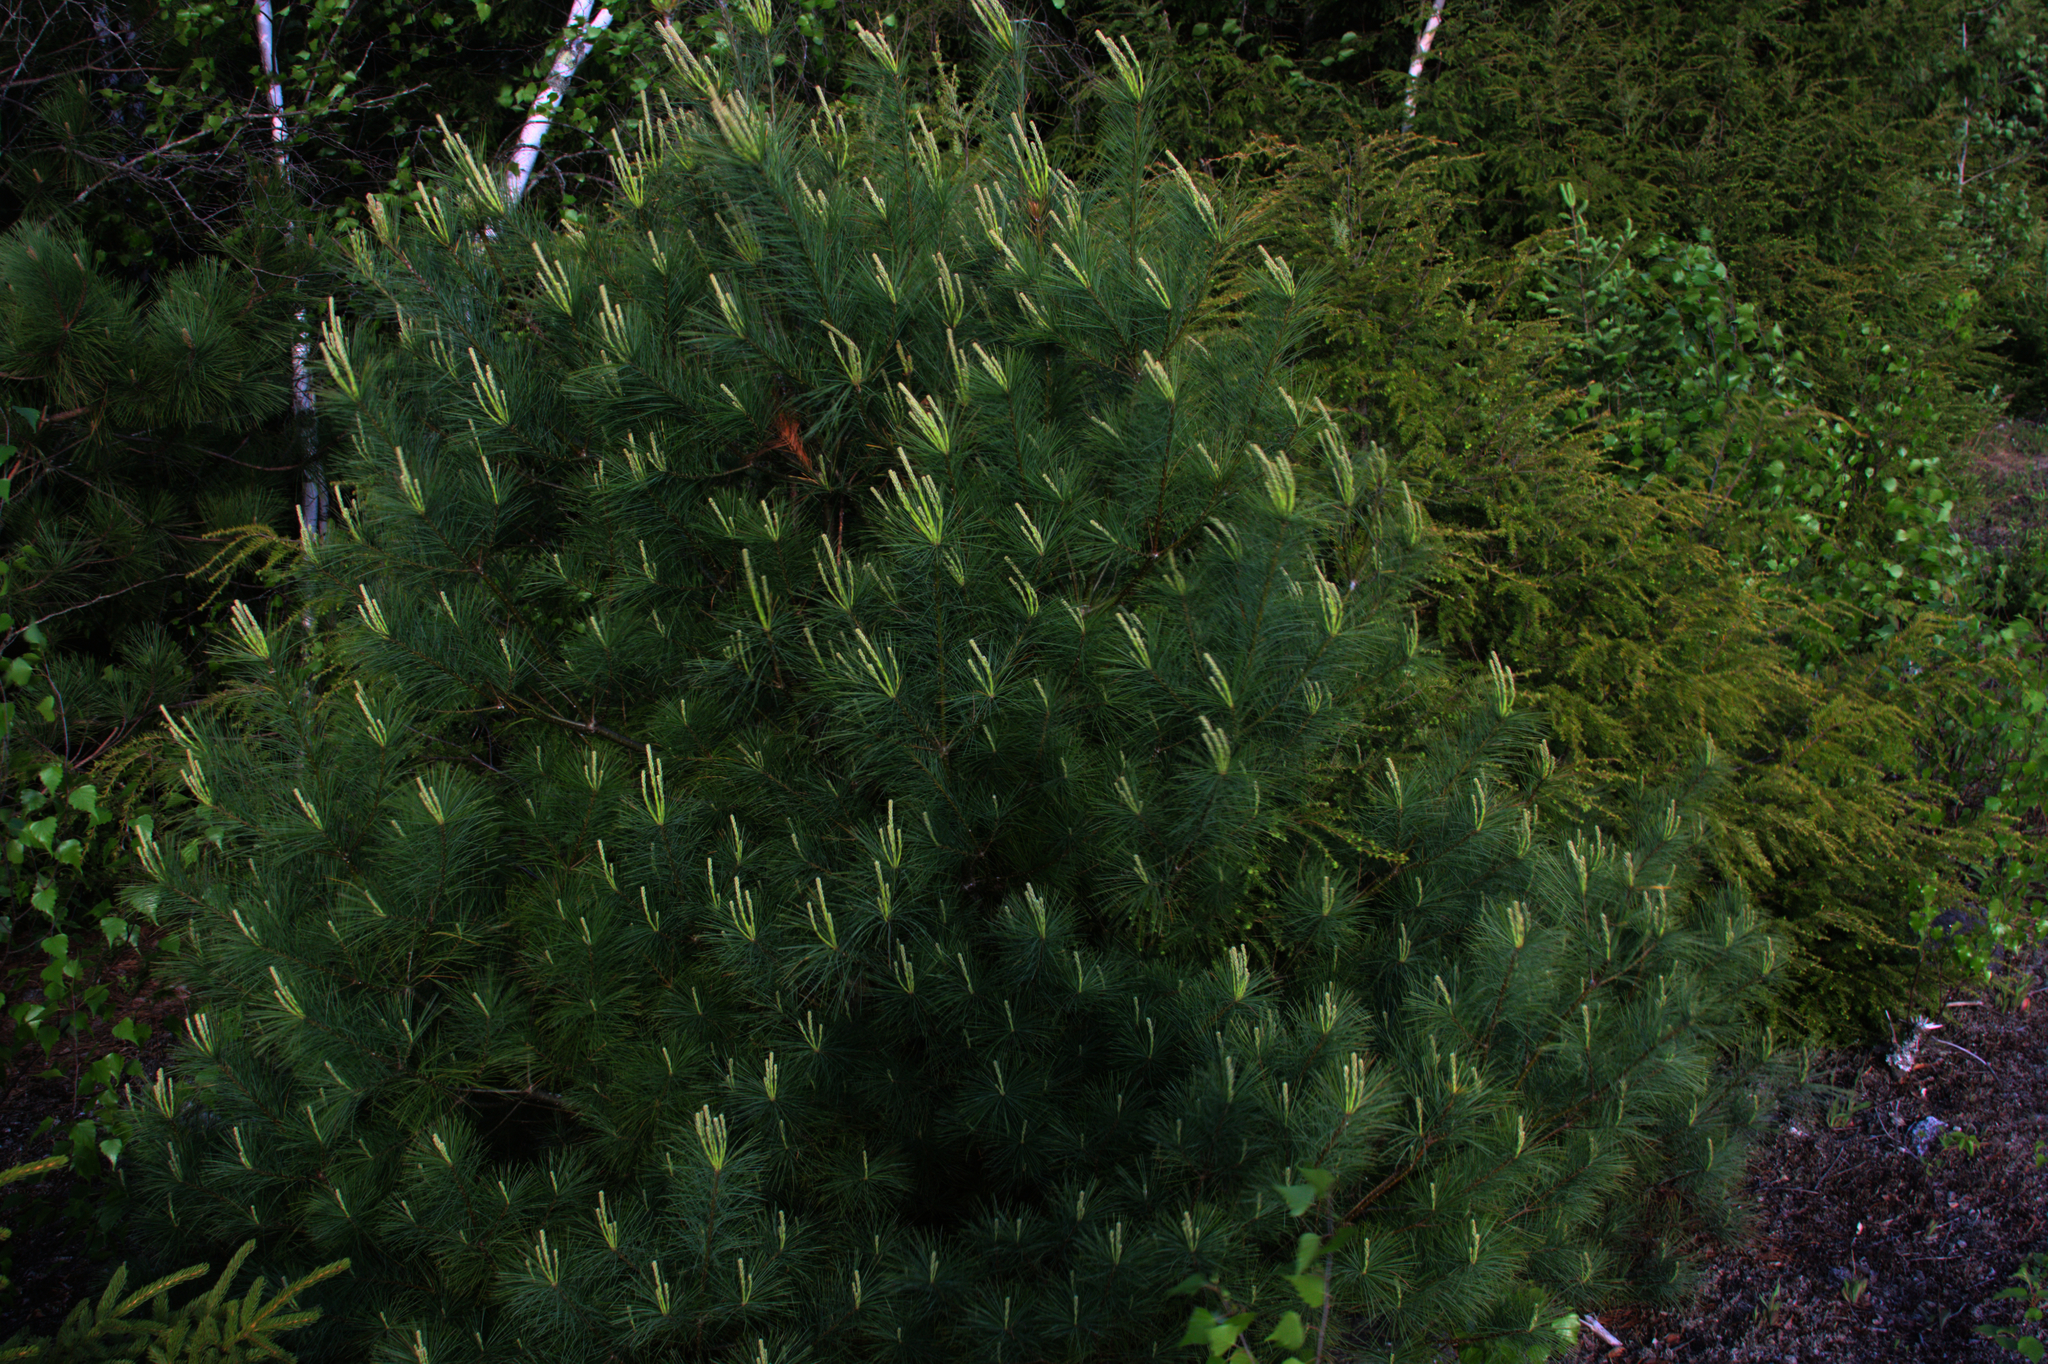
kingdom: Plantae
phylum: Tracheophyta
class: Pinopsida
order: Pinales
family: Pinaceae
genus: Pinus
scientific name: Pinus strobus
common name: Weymouth pine
